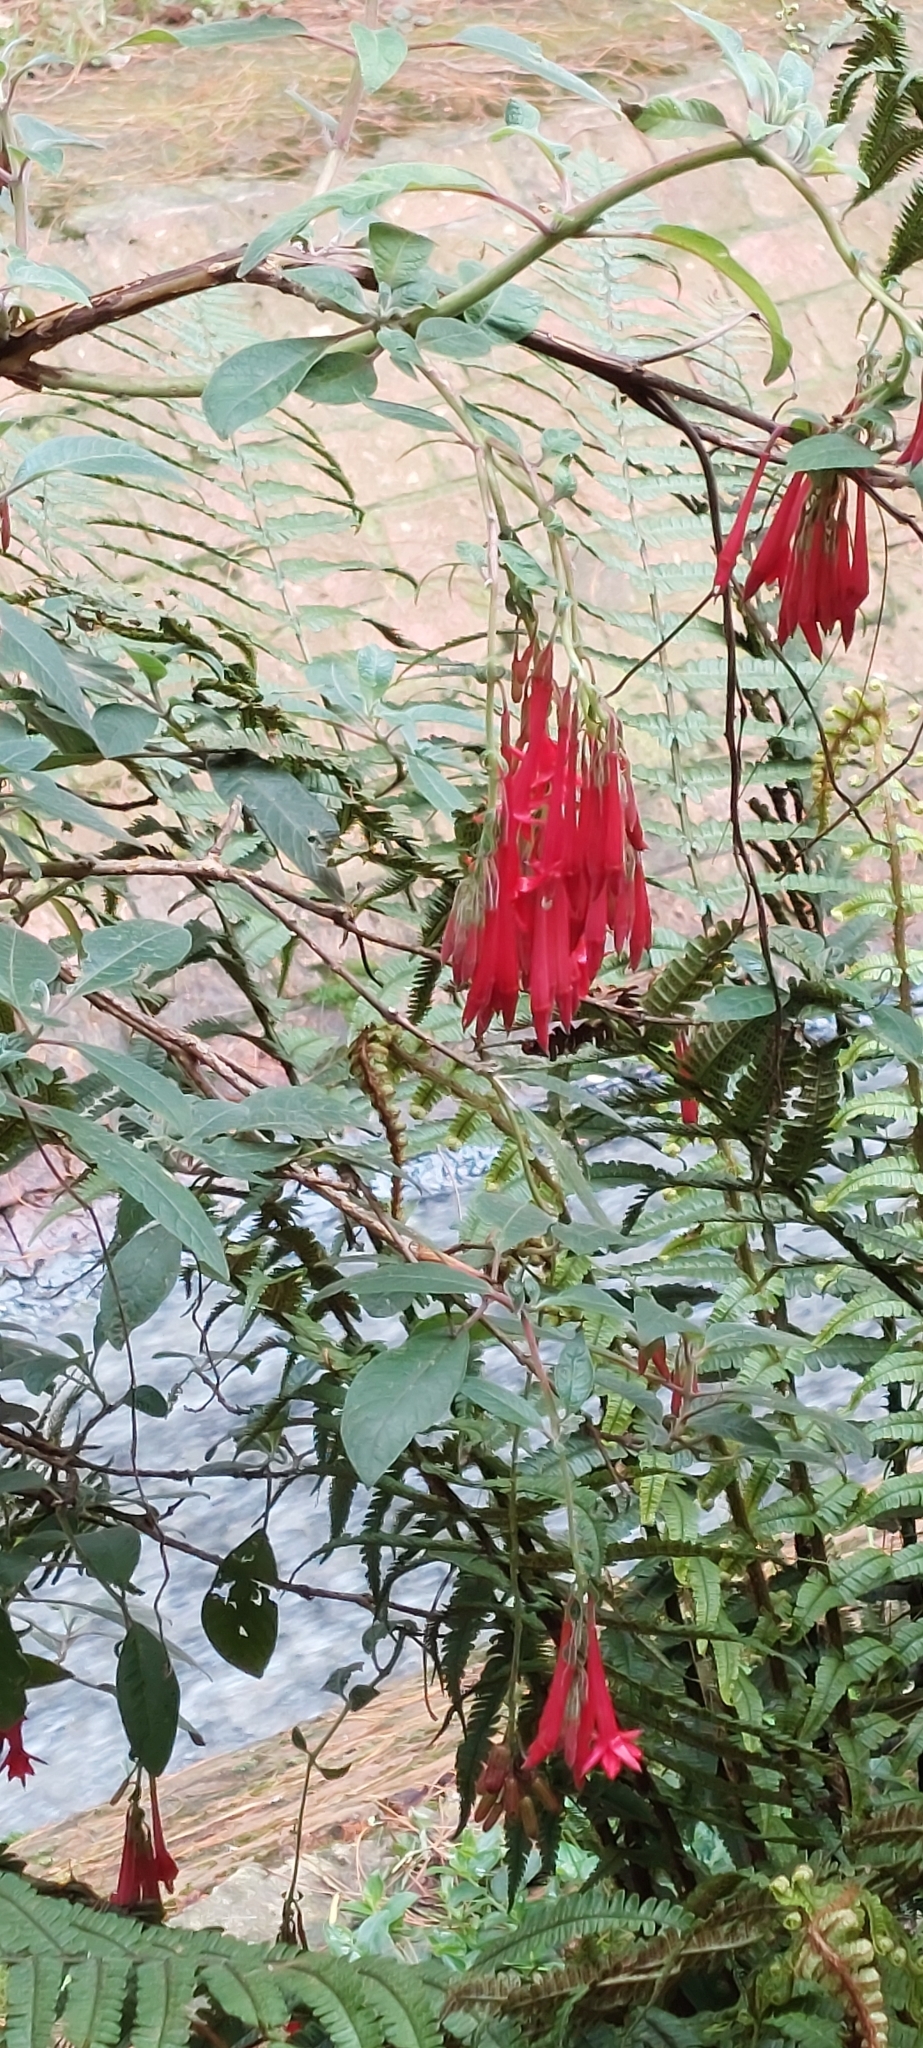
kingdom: Plantae
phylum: Tracheophyta
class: Magnoliopsida
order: Myrtales
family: Onagraceae
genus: Fuchsia
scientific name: Fuchsia boliviana
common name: Bolivian fuchsia
